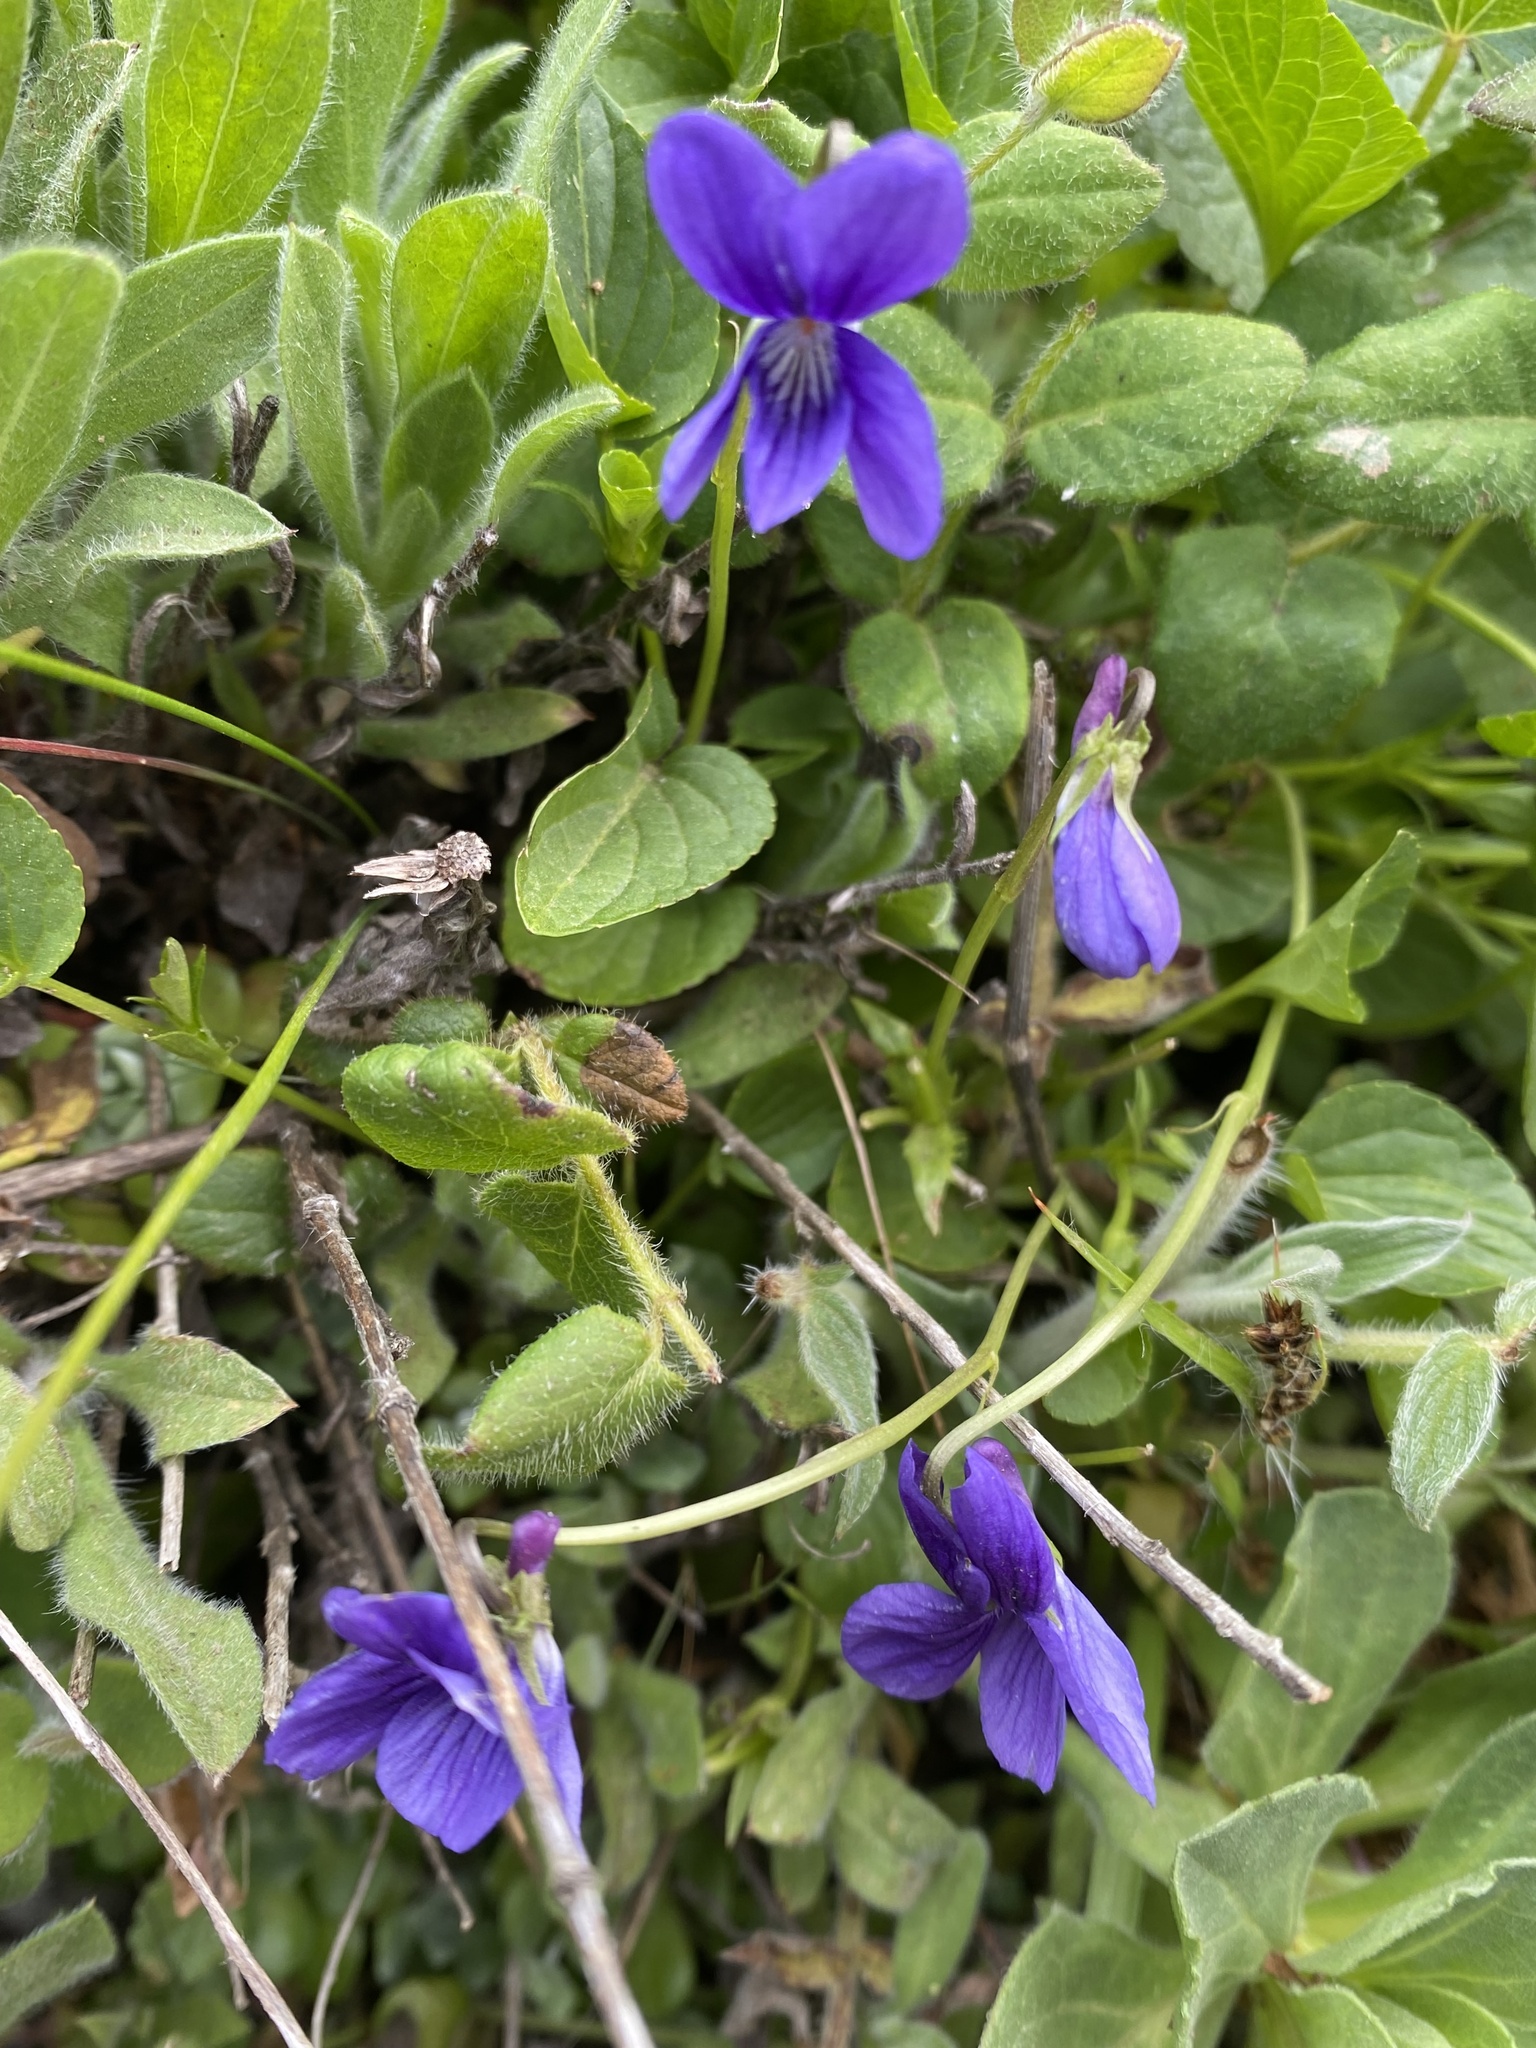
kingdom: Plantae
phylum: Tracheophyta
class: Magnoliopsida
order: Malpighiales
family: Violaceae
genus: Viola
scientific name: Viola adunca
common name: Sand violet
